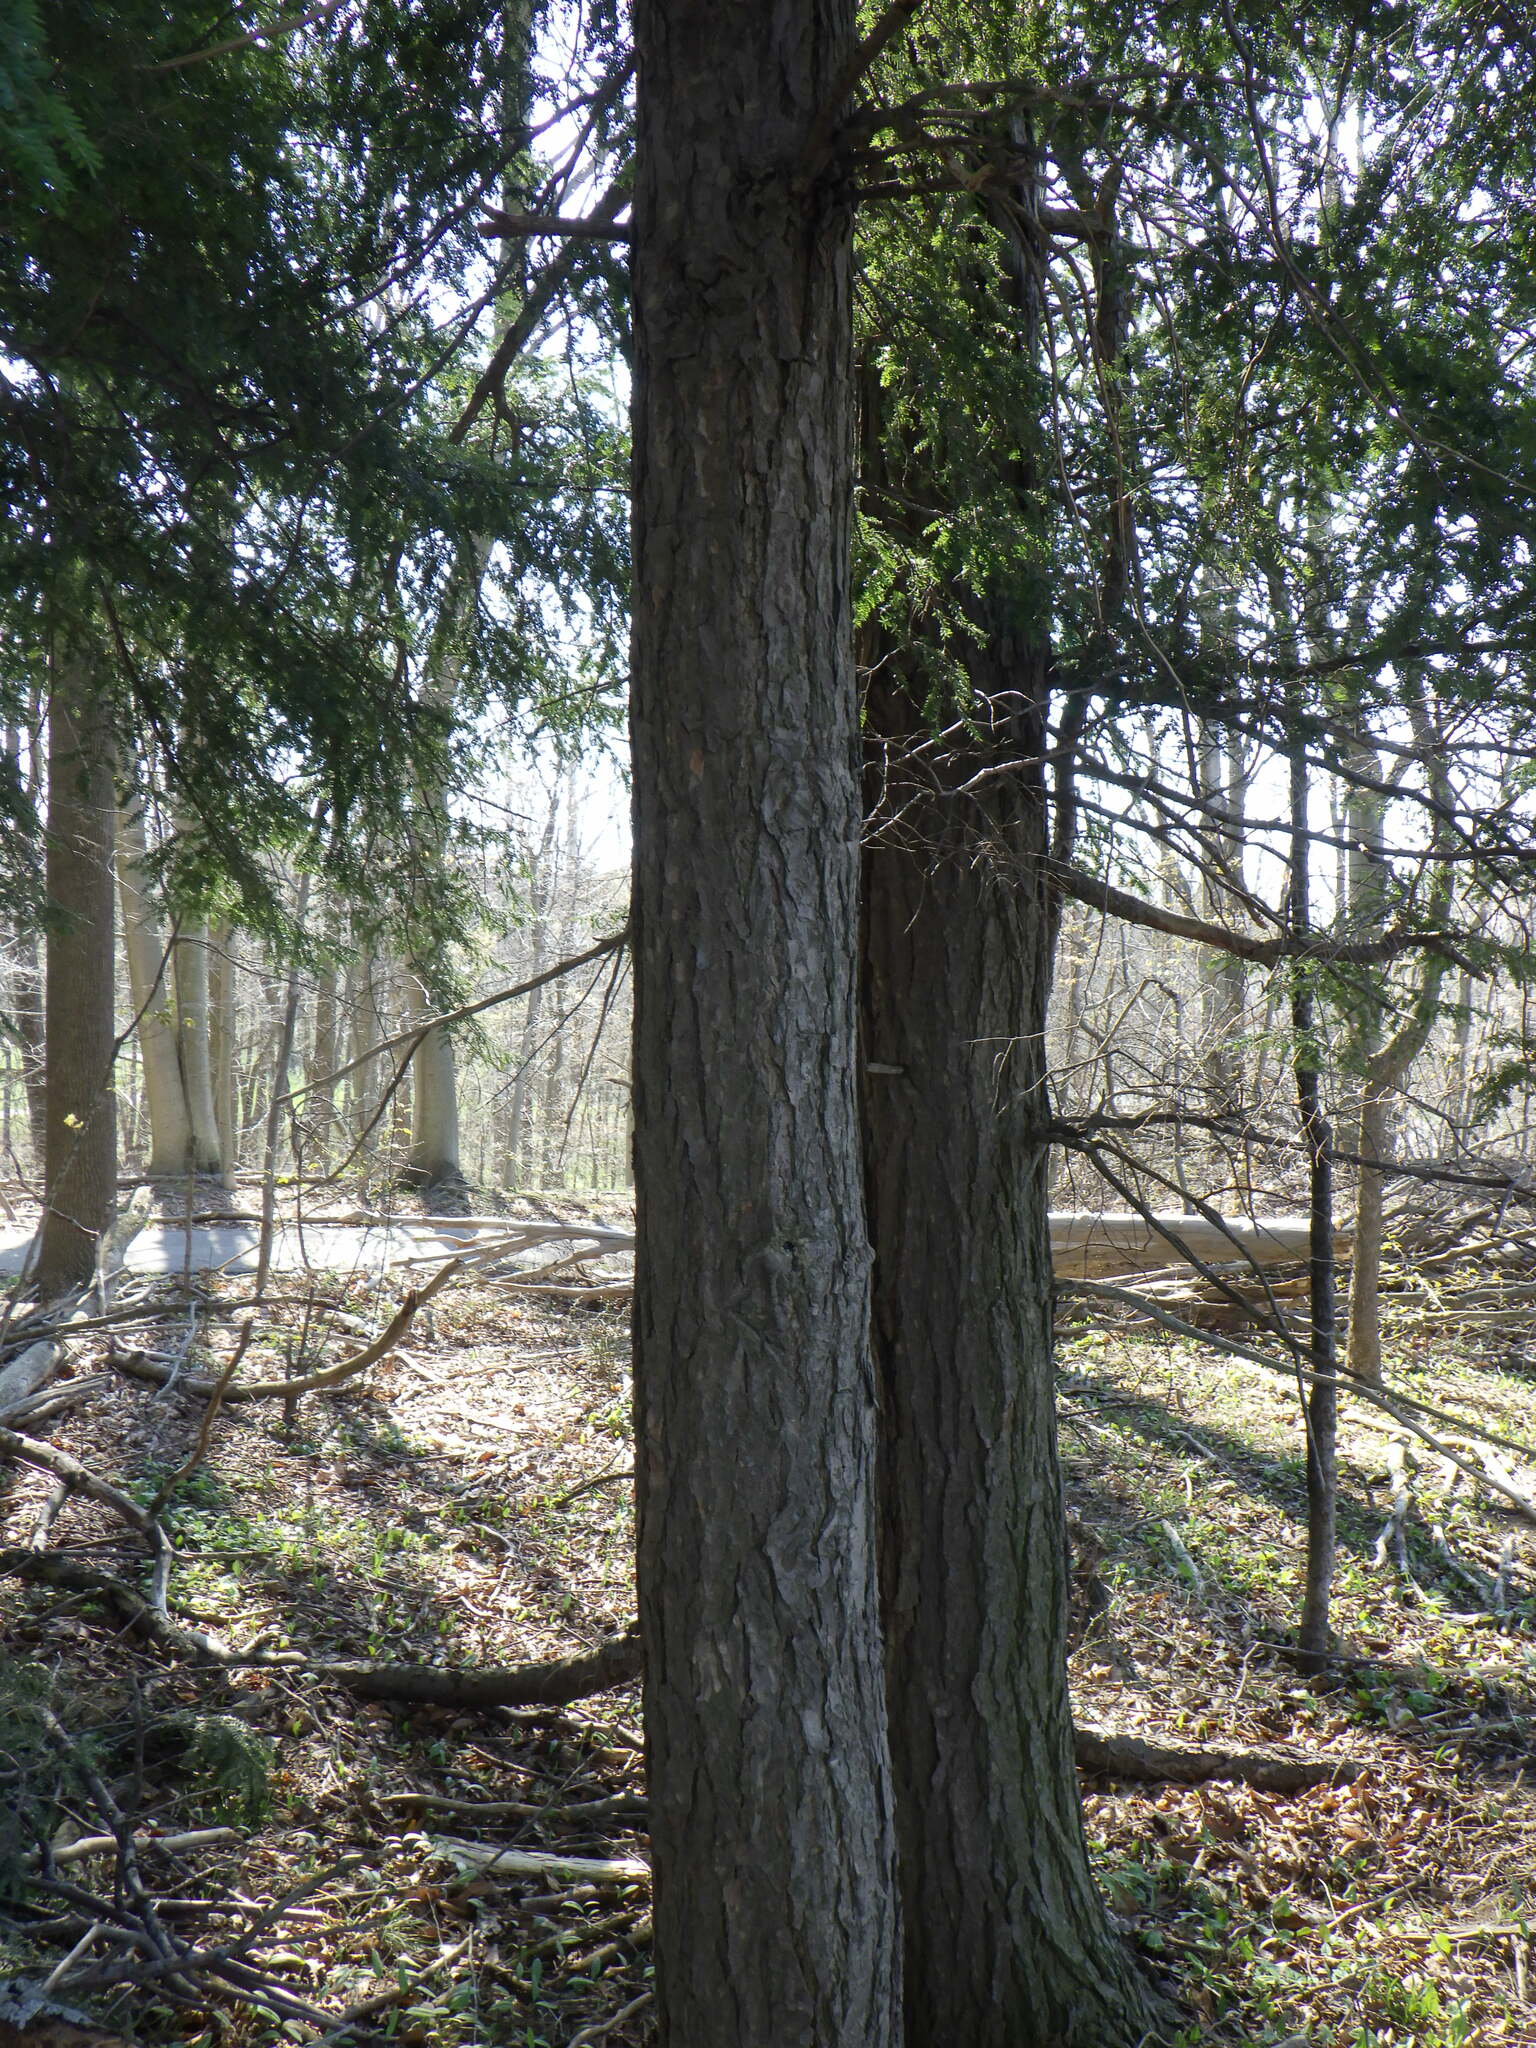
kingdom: Plantae
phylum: Tracheophyta
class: Pinopsida
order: Pinales
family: Pinaceae
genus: Tsuga
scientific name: Tsuga canadensis
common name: Eastern hemlock
